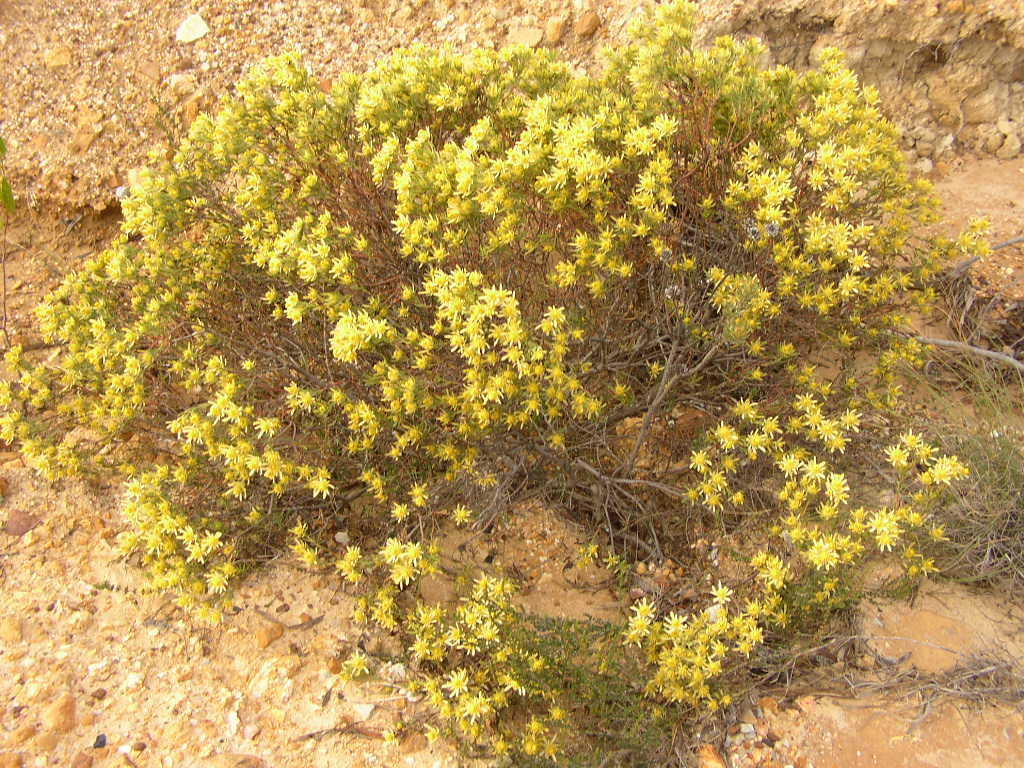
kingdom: Plantae
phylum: Tracheophyta
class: Magnoliopsida
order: Proteales
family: Proteaceae
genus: Leucadendron
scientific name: Leucadendron modestum
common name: Rough-leaf conebush
